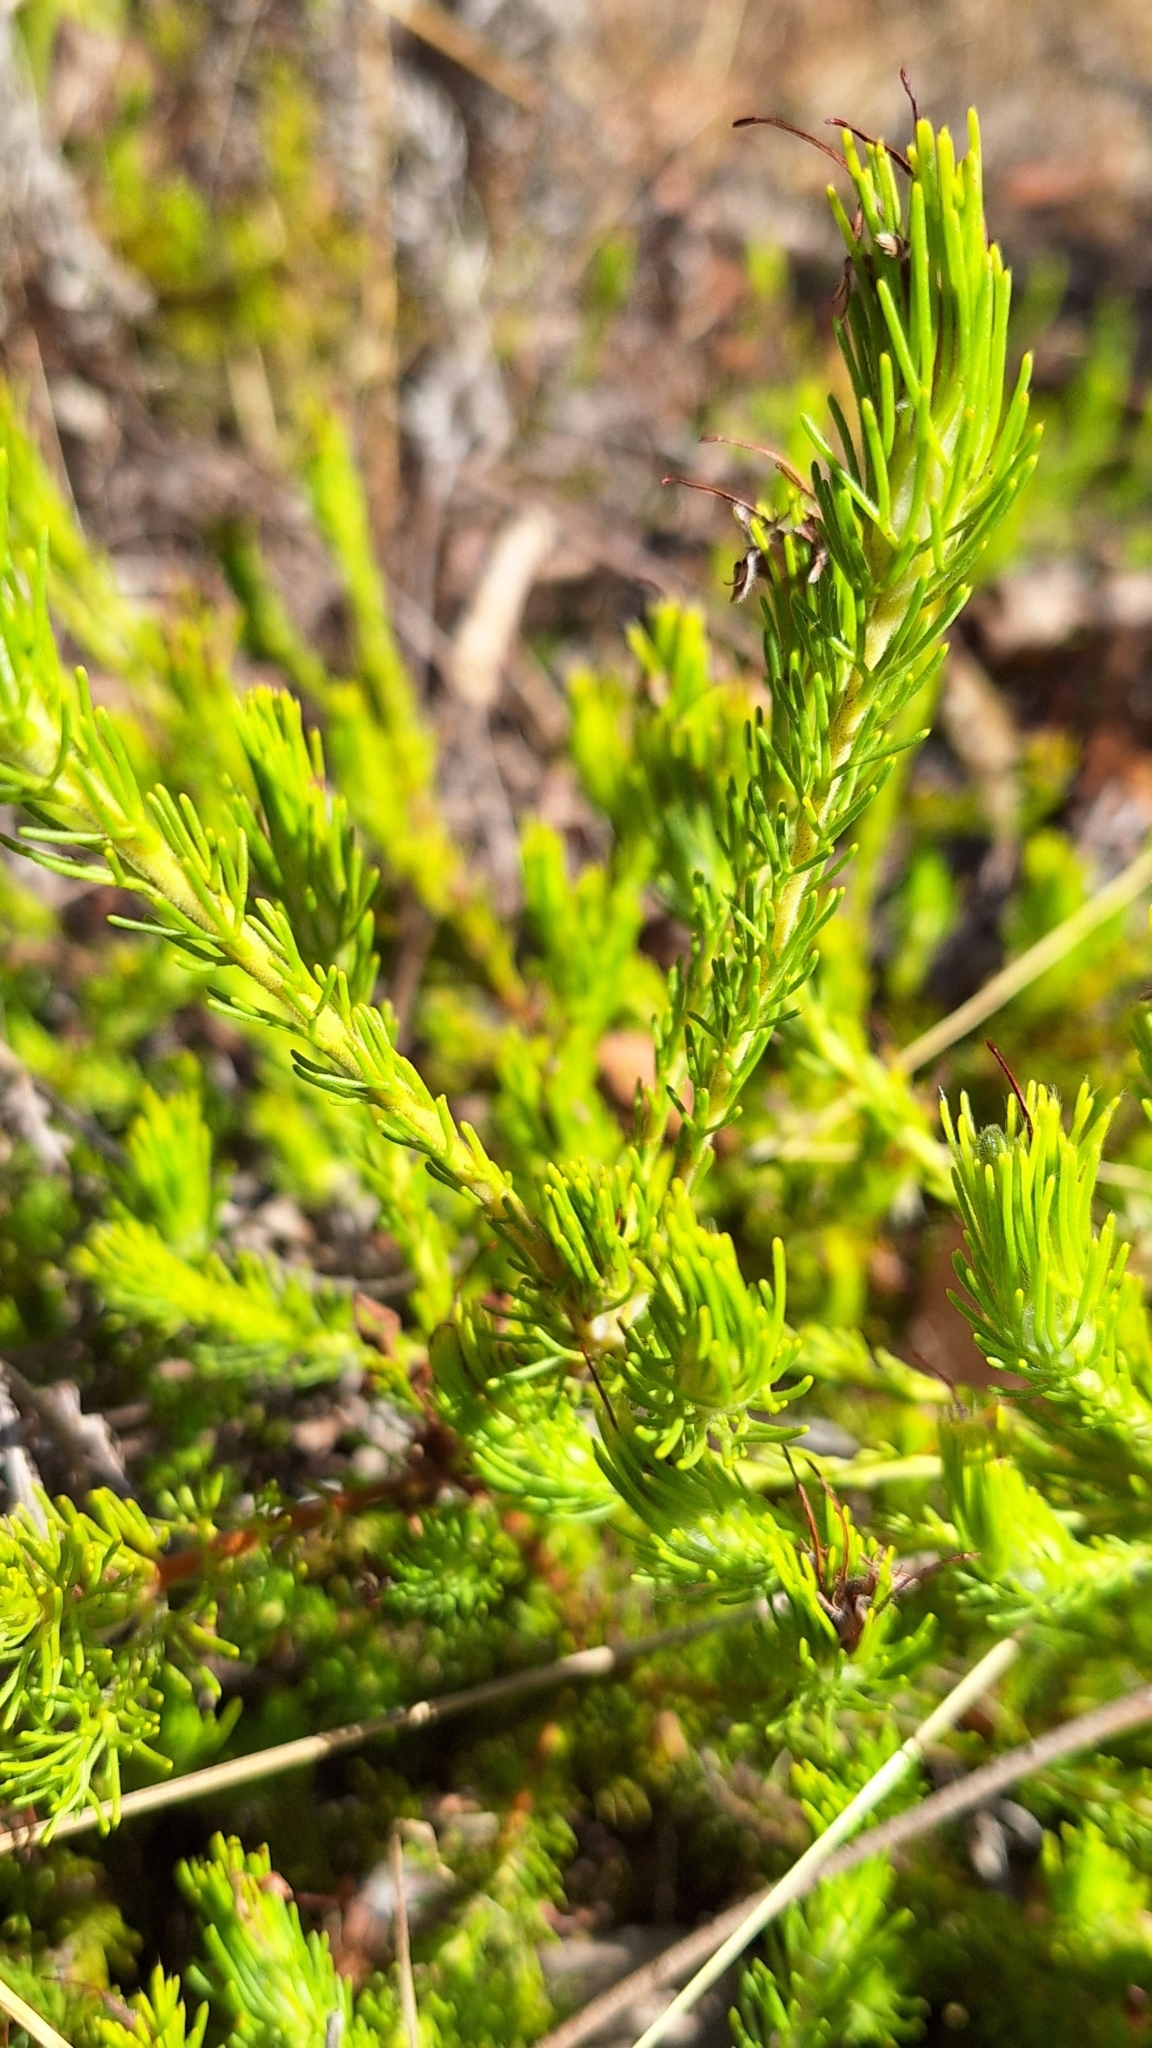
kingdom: Plantae
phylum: Tracheophyta
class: Magnoliopsida
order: Proteales
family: Proteaceae
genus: Adenanthos
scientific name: Adenanthos terminalis
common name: Yellow gland-flower
